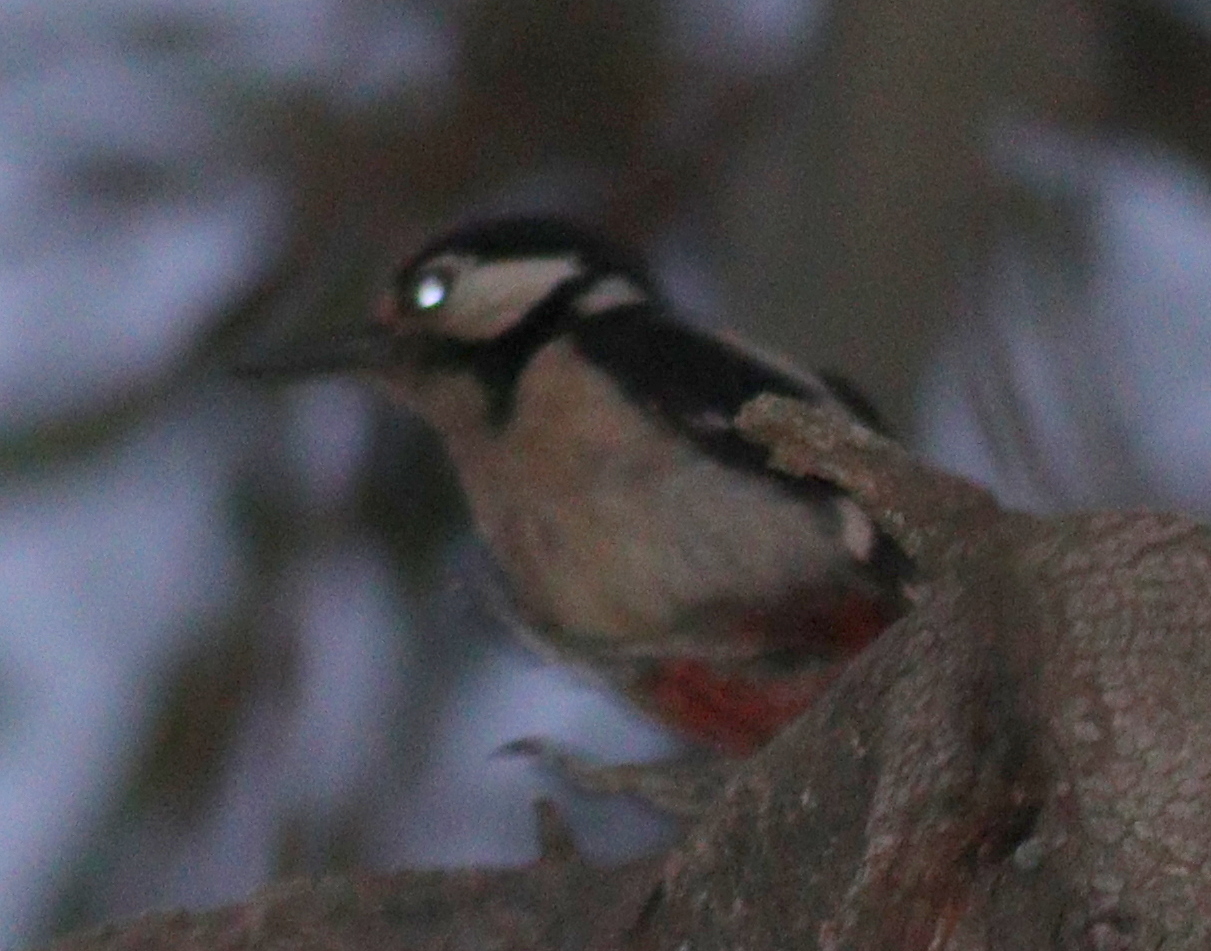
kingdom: Animalia
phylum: Chordata
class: Aves
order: Piciformes
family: Picidae
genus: Dendrocopos
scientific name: Dendrocopos major
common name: Great spotted woodpecker
